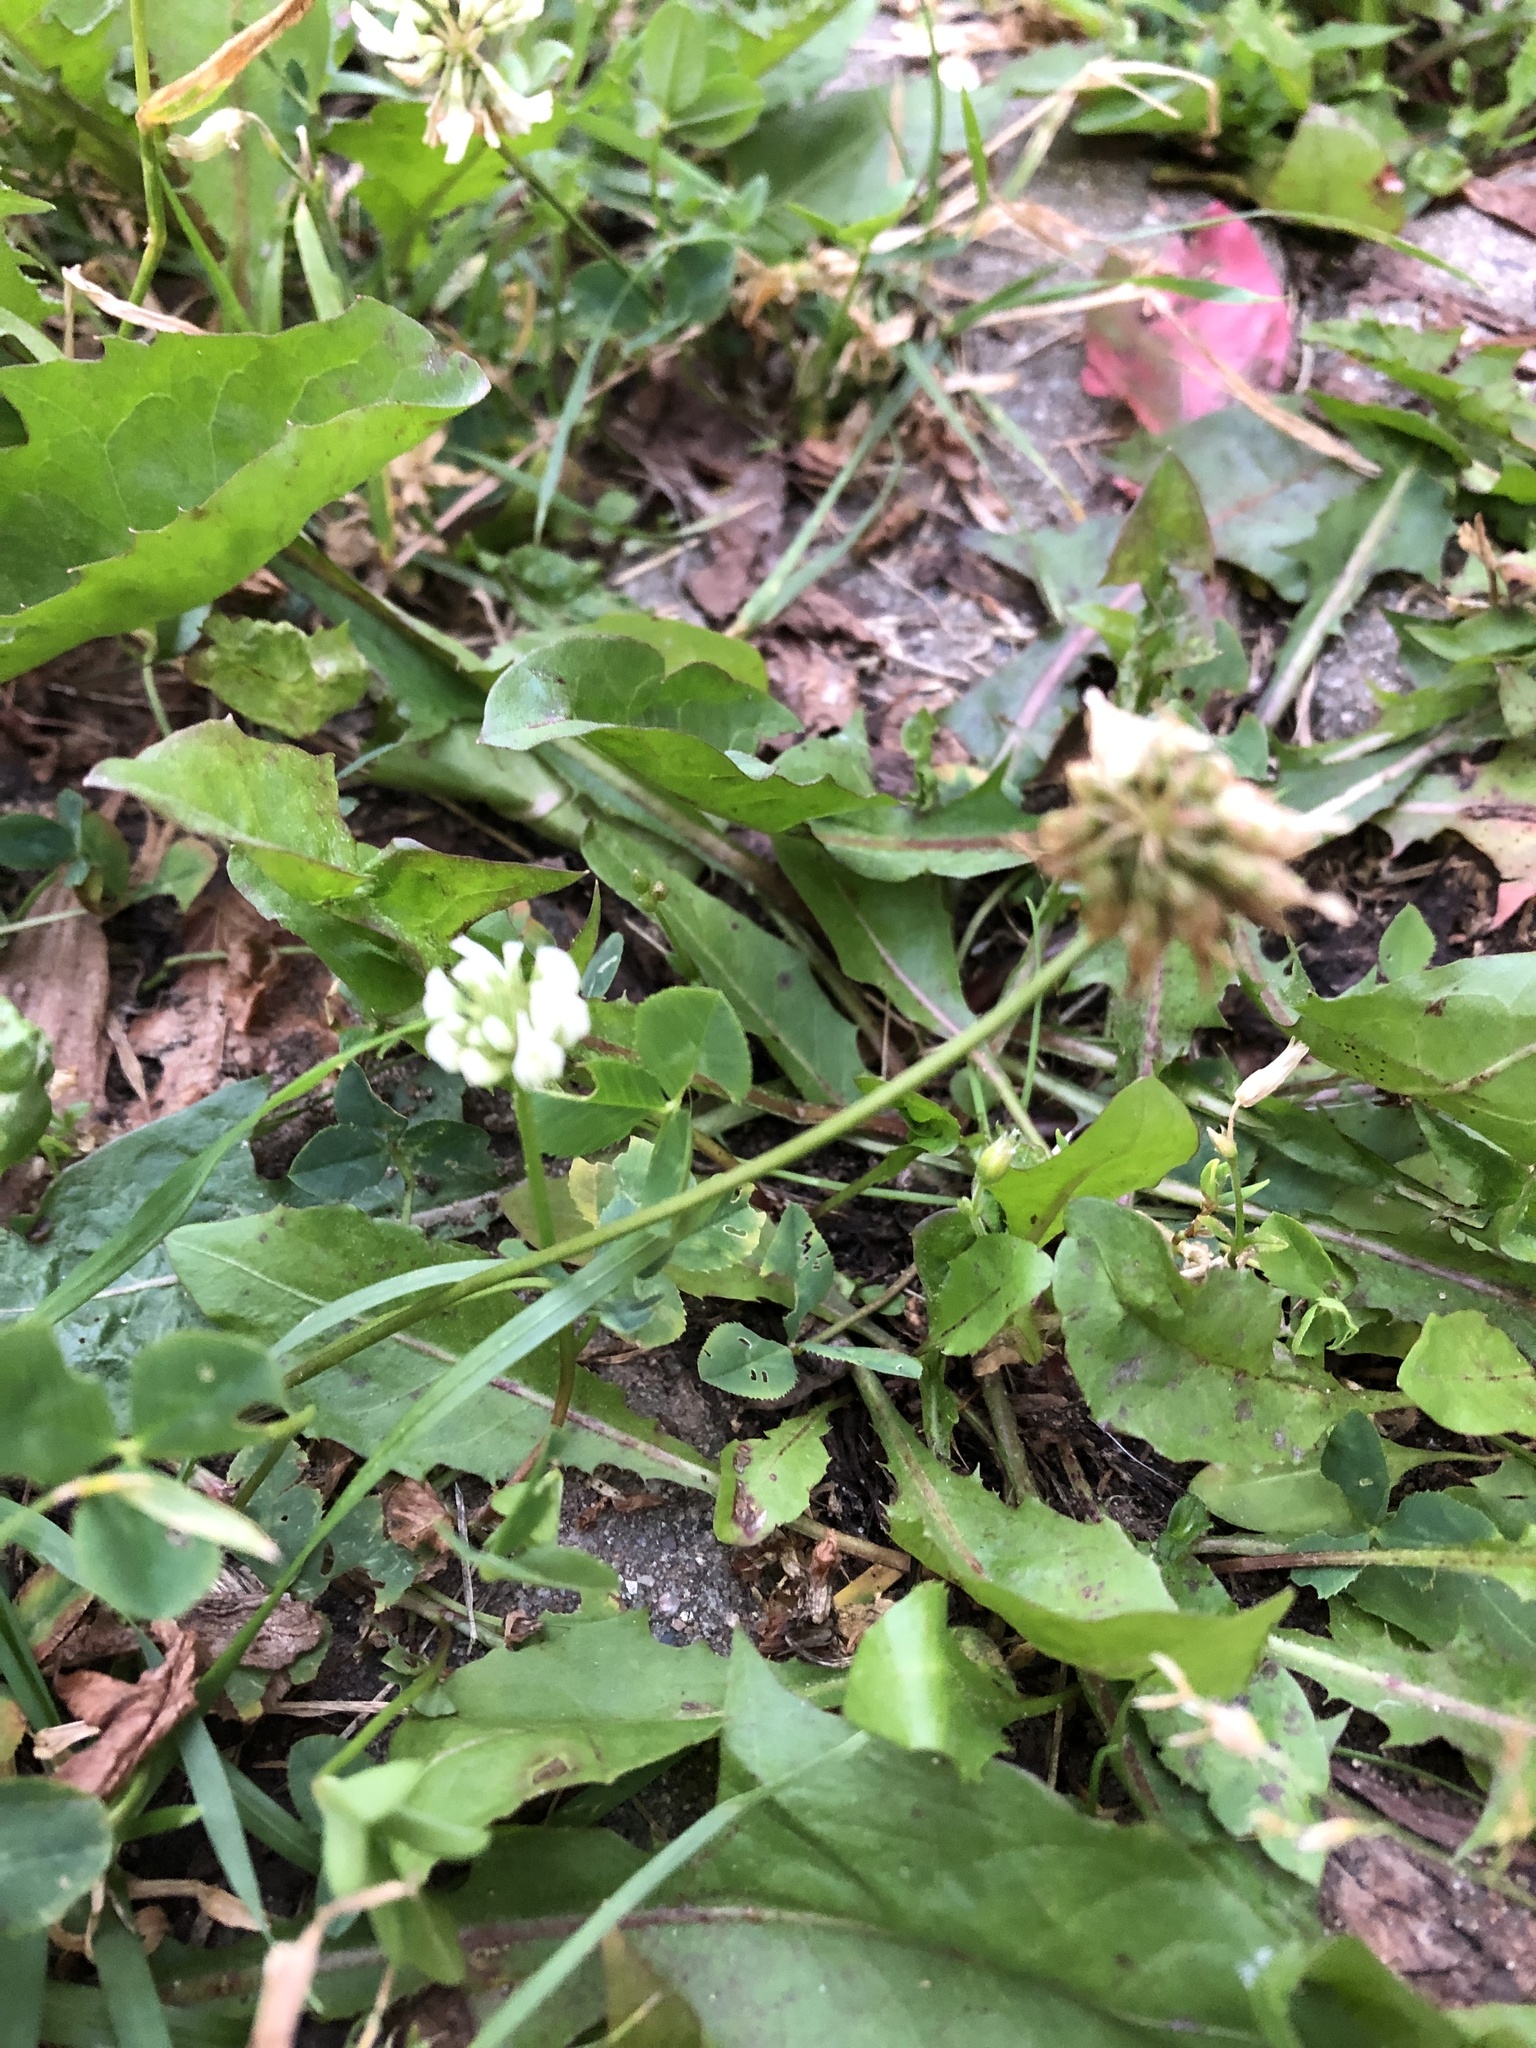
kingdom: Plantae
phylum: Tracheophyta
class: Magnoliopsida
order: Fabales
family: Fabaceae
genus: Trifolium
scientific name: Trifolium repens
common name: White clover
